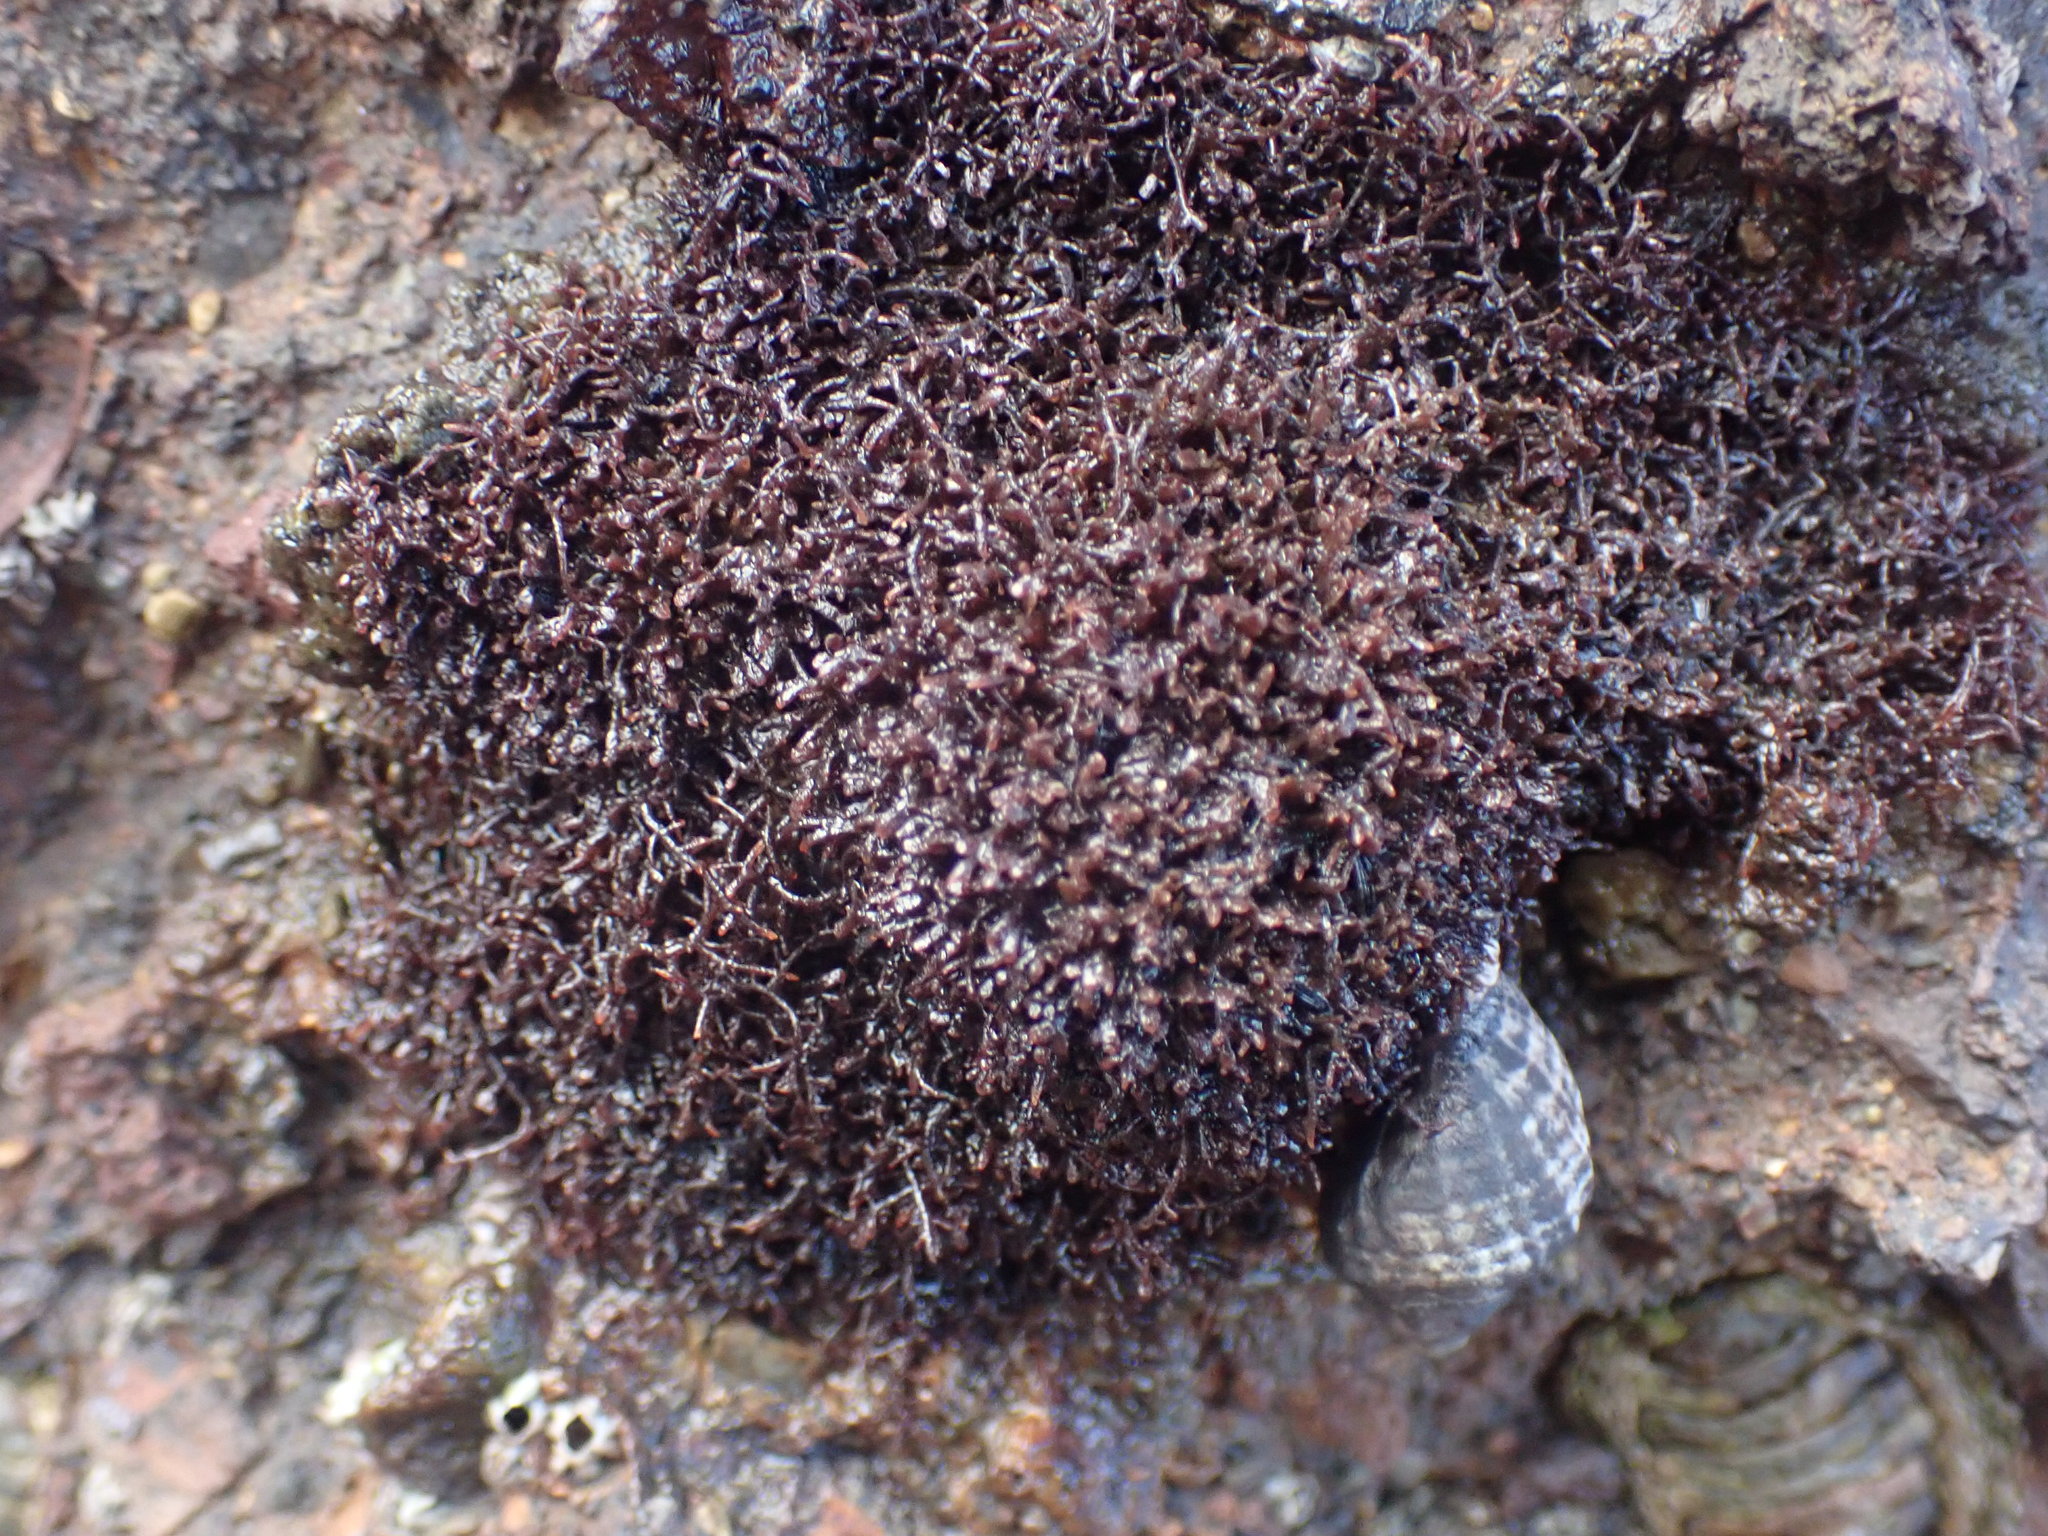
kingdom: Plantae
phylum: Rhodophyta
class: Florideophyceae
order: Gelidiales
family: Gelidiaceae
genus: Capreolia
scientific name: Capreolia implexa
